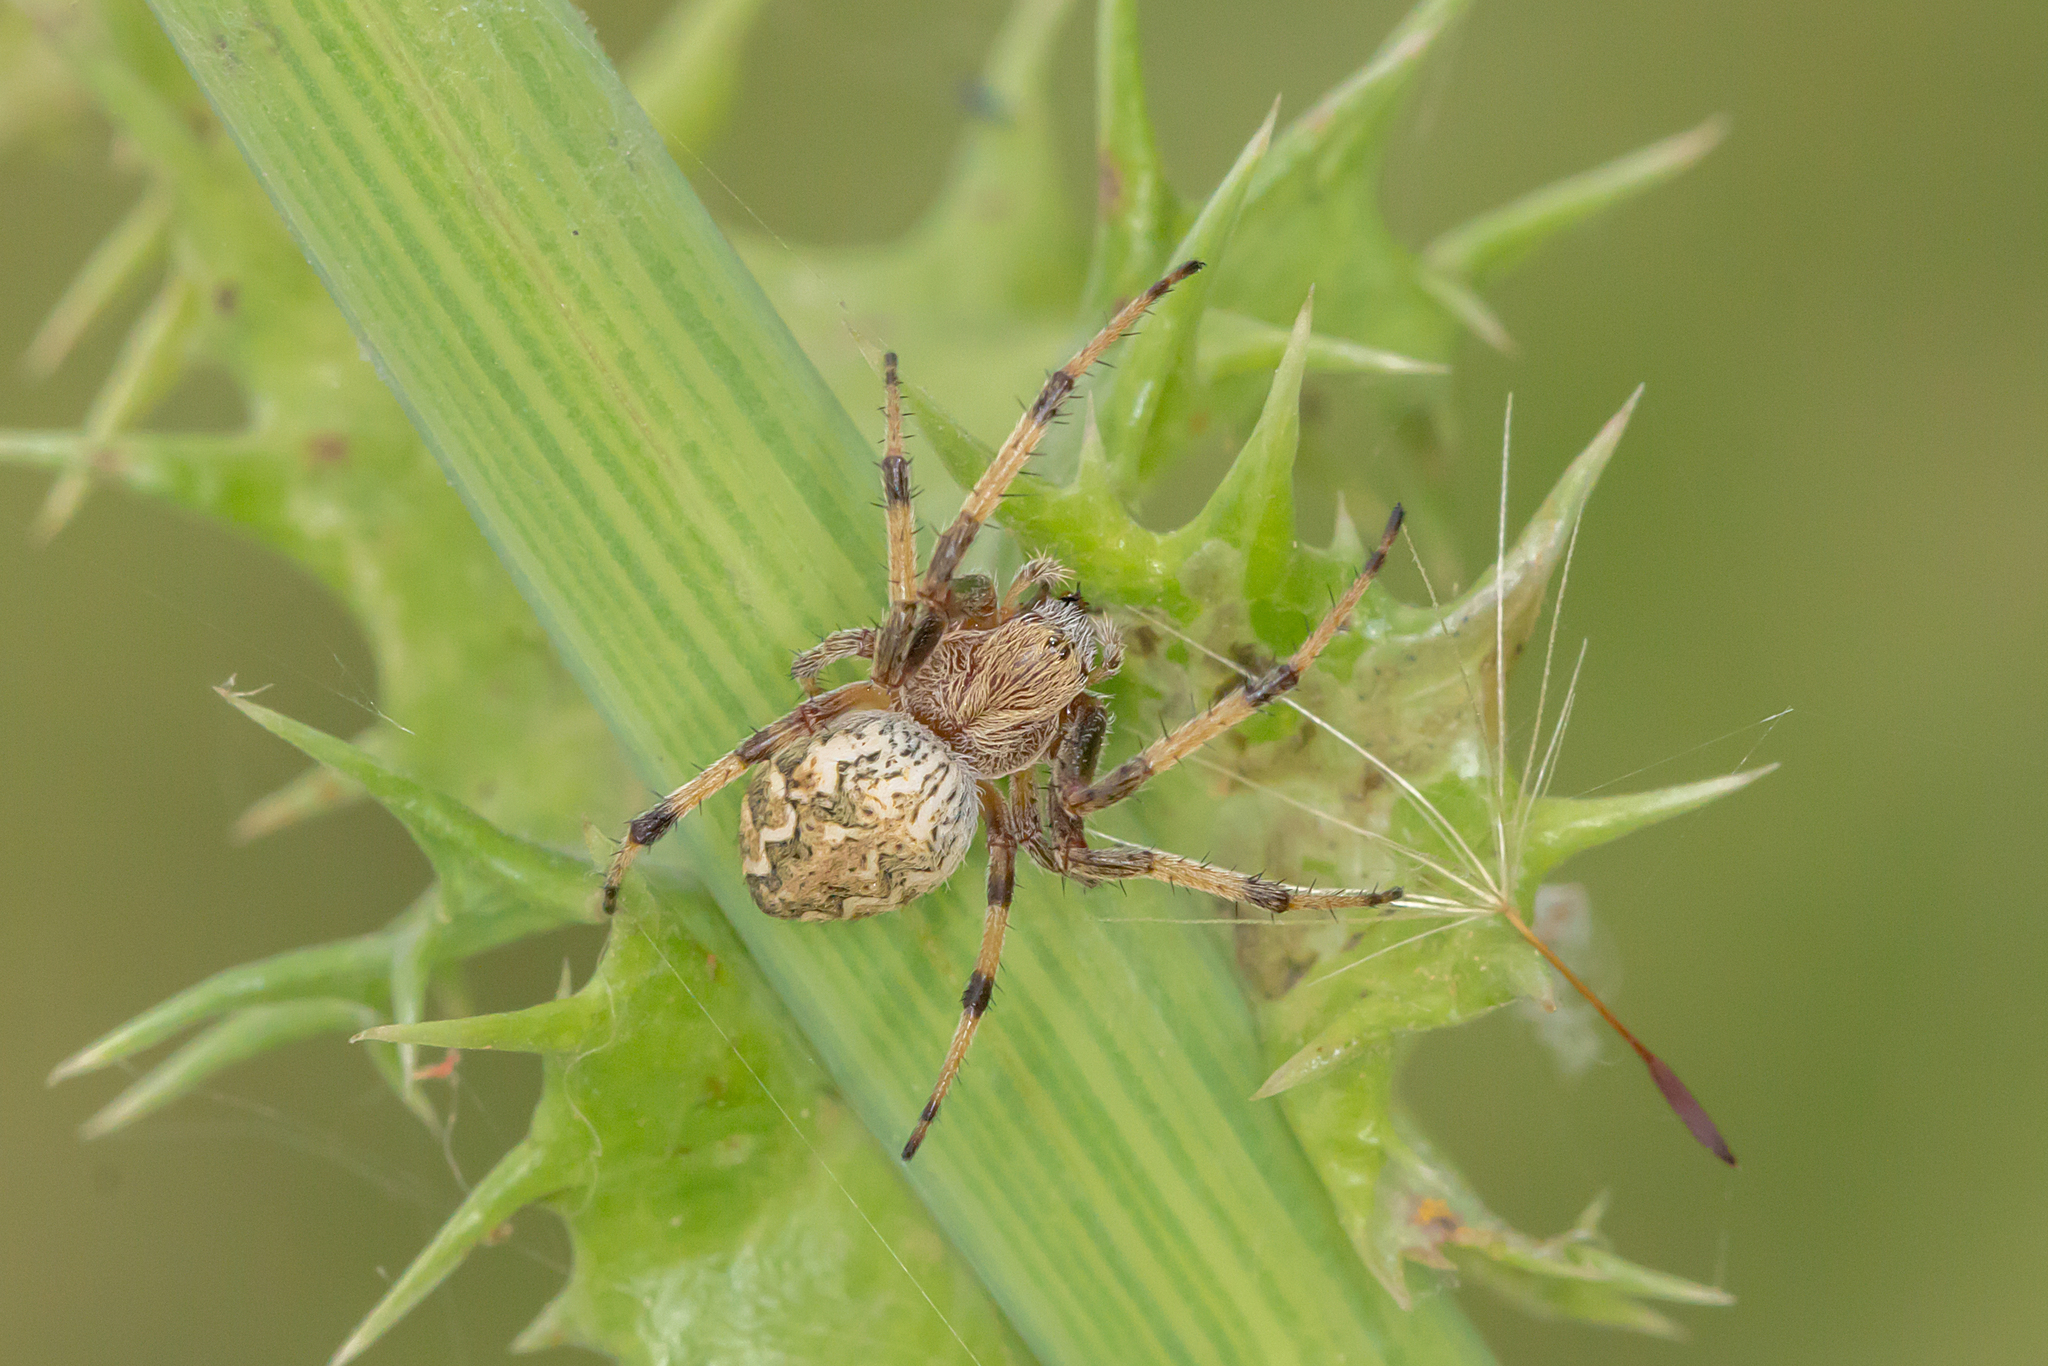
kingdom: Animalia
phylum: Arthropoda
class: Arachnida
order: Araneae
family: Araneidae
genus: Salsa
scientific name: Salsa fuliginata
